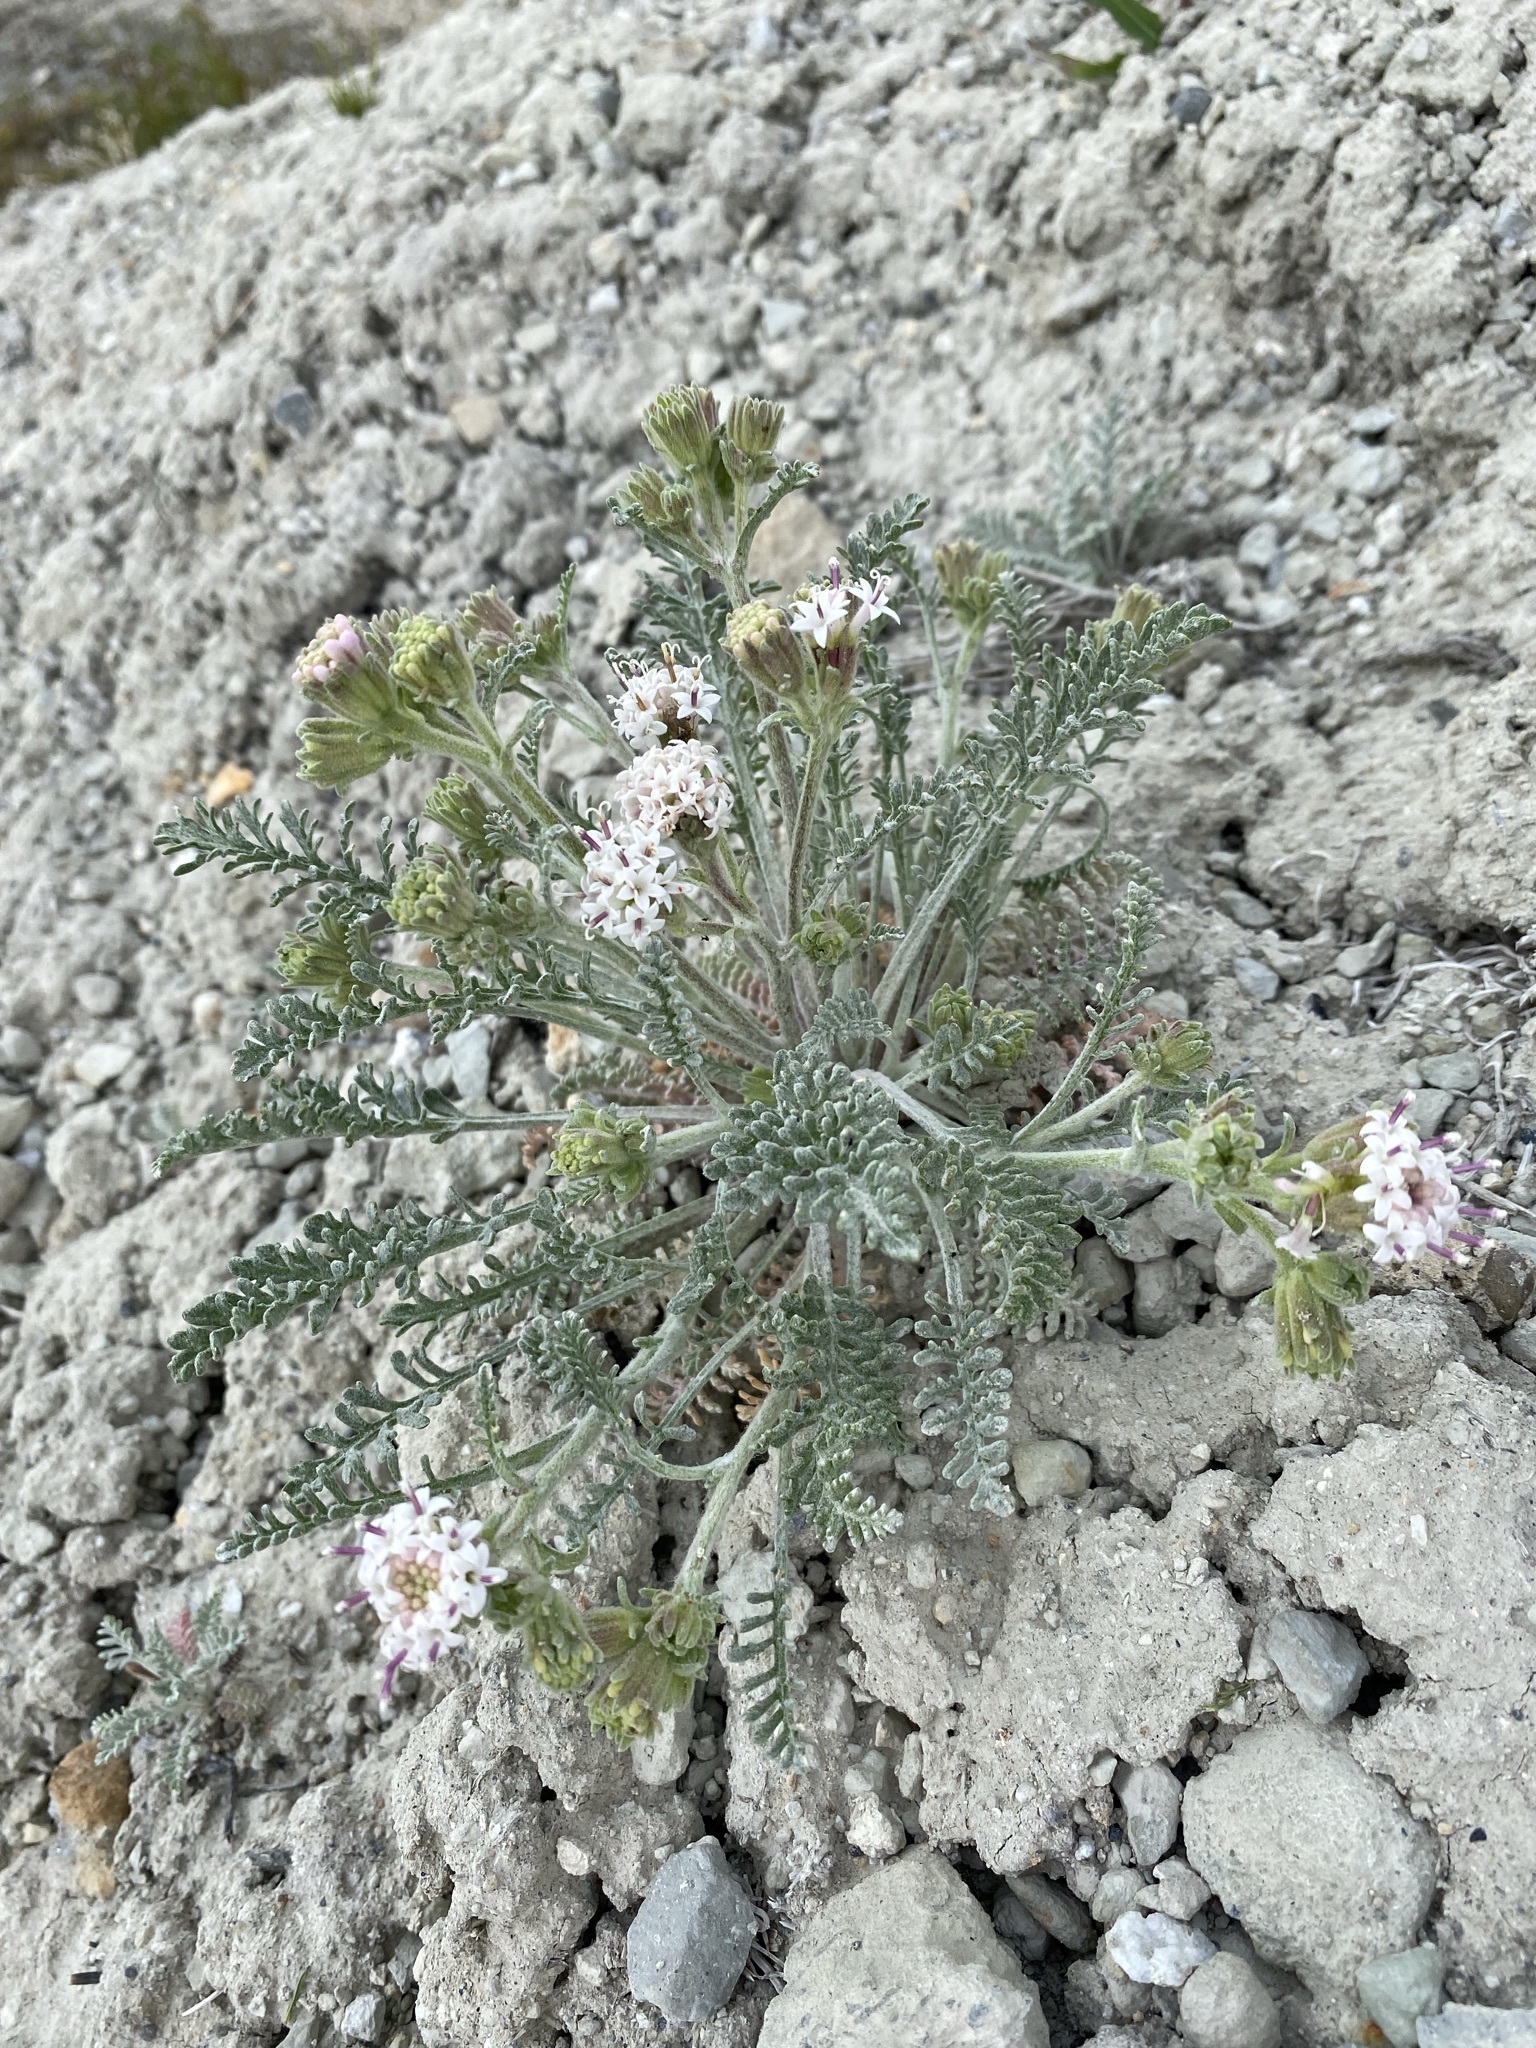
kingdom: Plantae
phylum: Tracheophyta
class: Magnoliopsida
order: Asterales
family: Asteraceae
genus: Chaenactis
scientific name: Chaenactis douglasii
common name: Hoary pincushion
